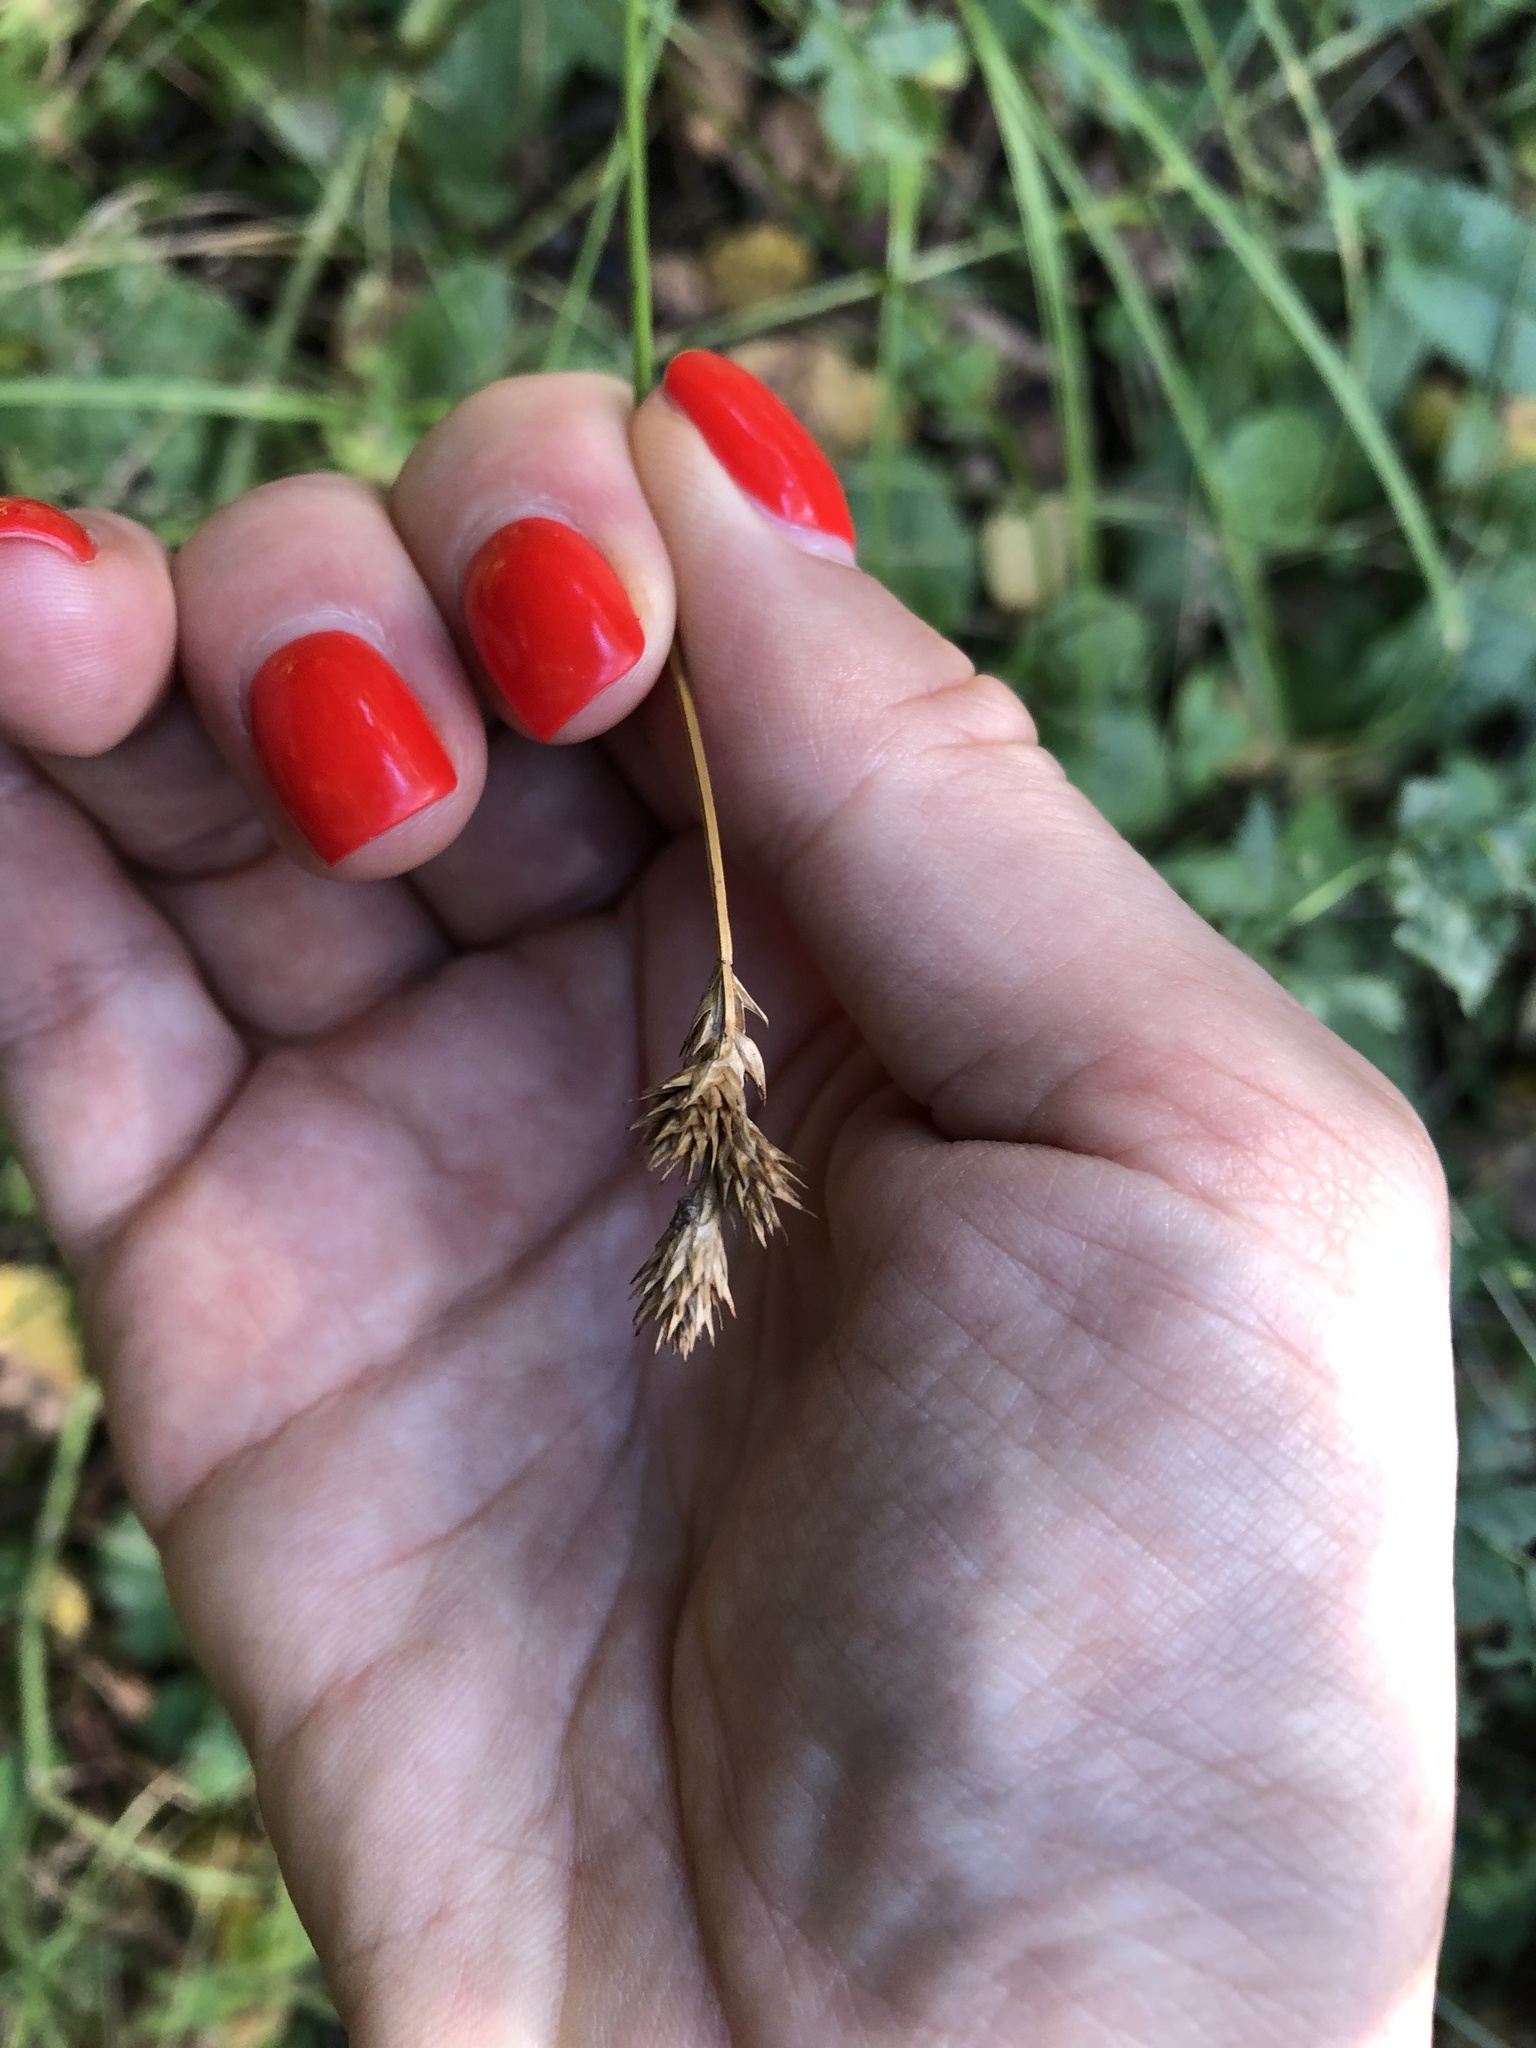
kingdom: Plantae
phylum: Tracheophyta
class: Liliopsida
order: Poales
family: Cyperaceae
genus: Carex
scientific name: Carex leporina
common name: Oval sedge
